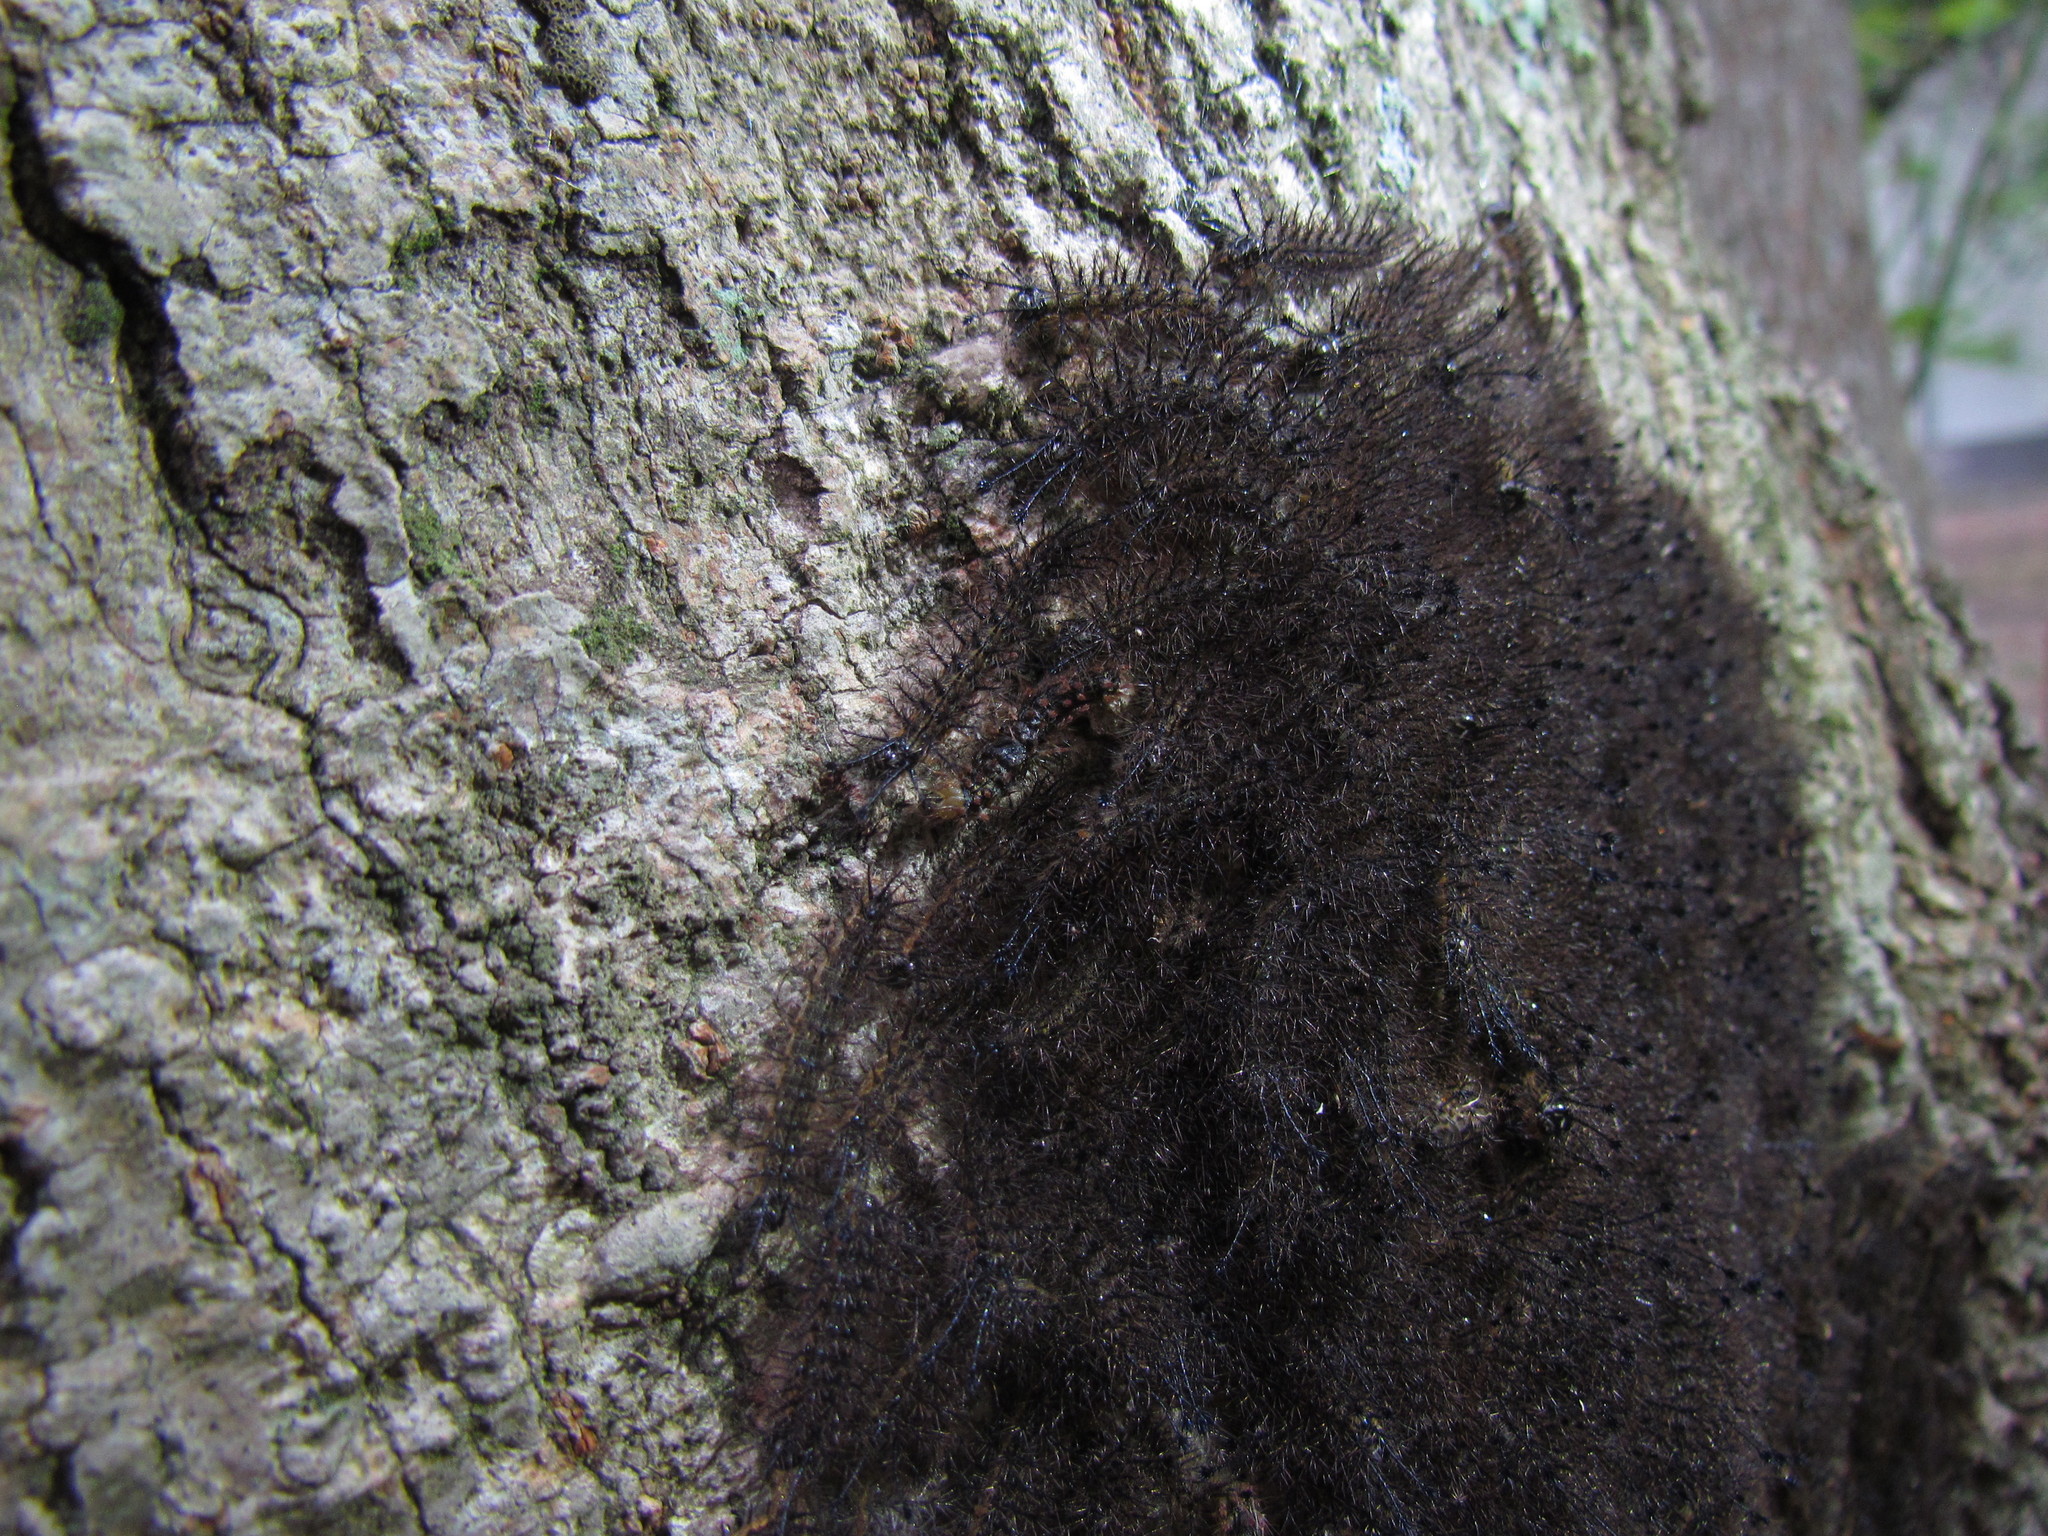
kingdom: Animalia
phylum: Arthropoda
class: Insecta
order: Lepidoptera
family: Saturniidae
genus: Hylesia
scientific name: Hylesia nigricans
